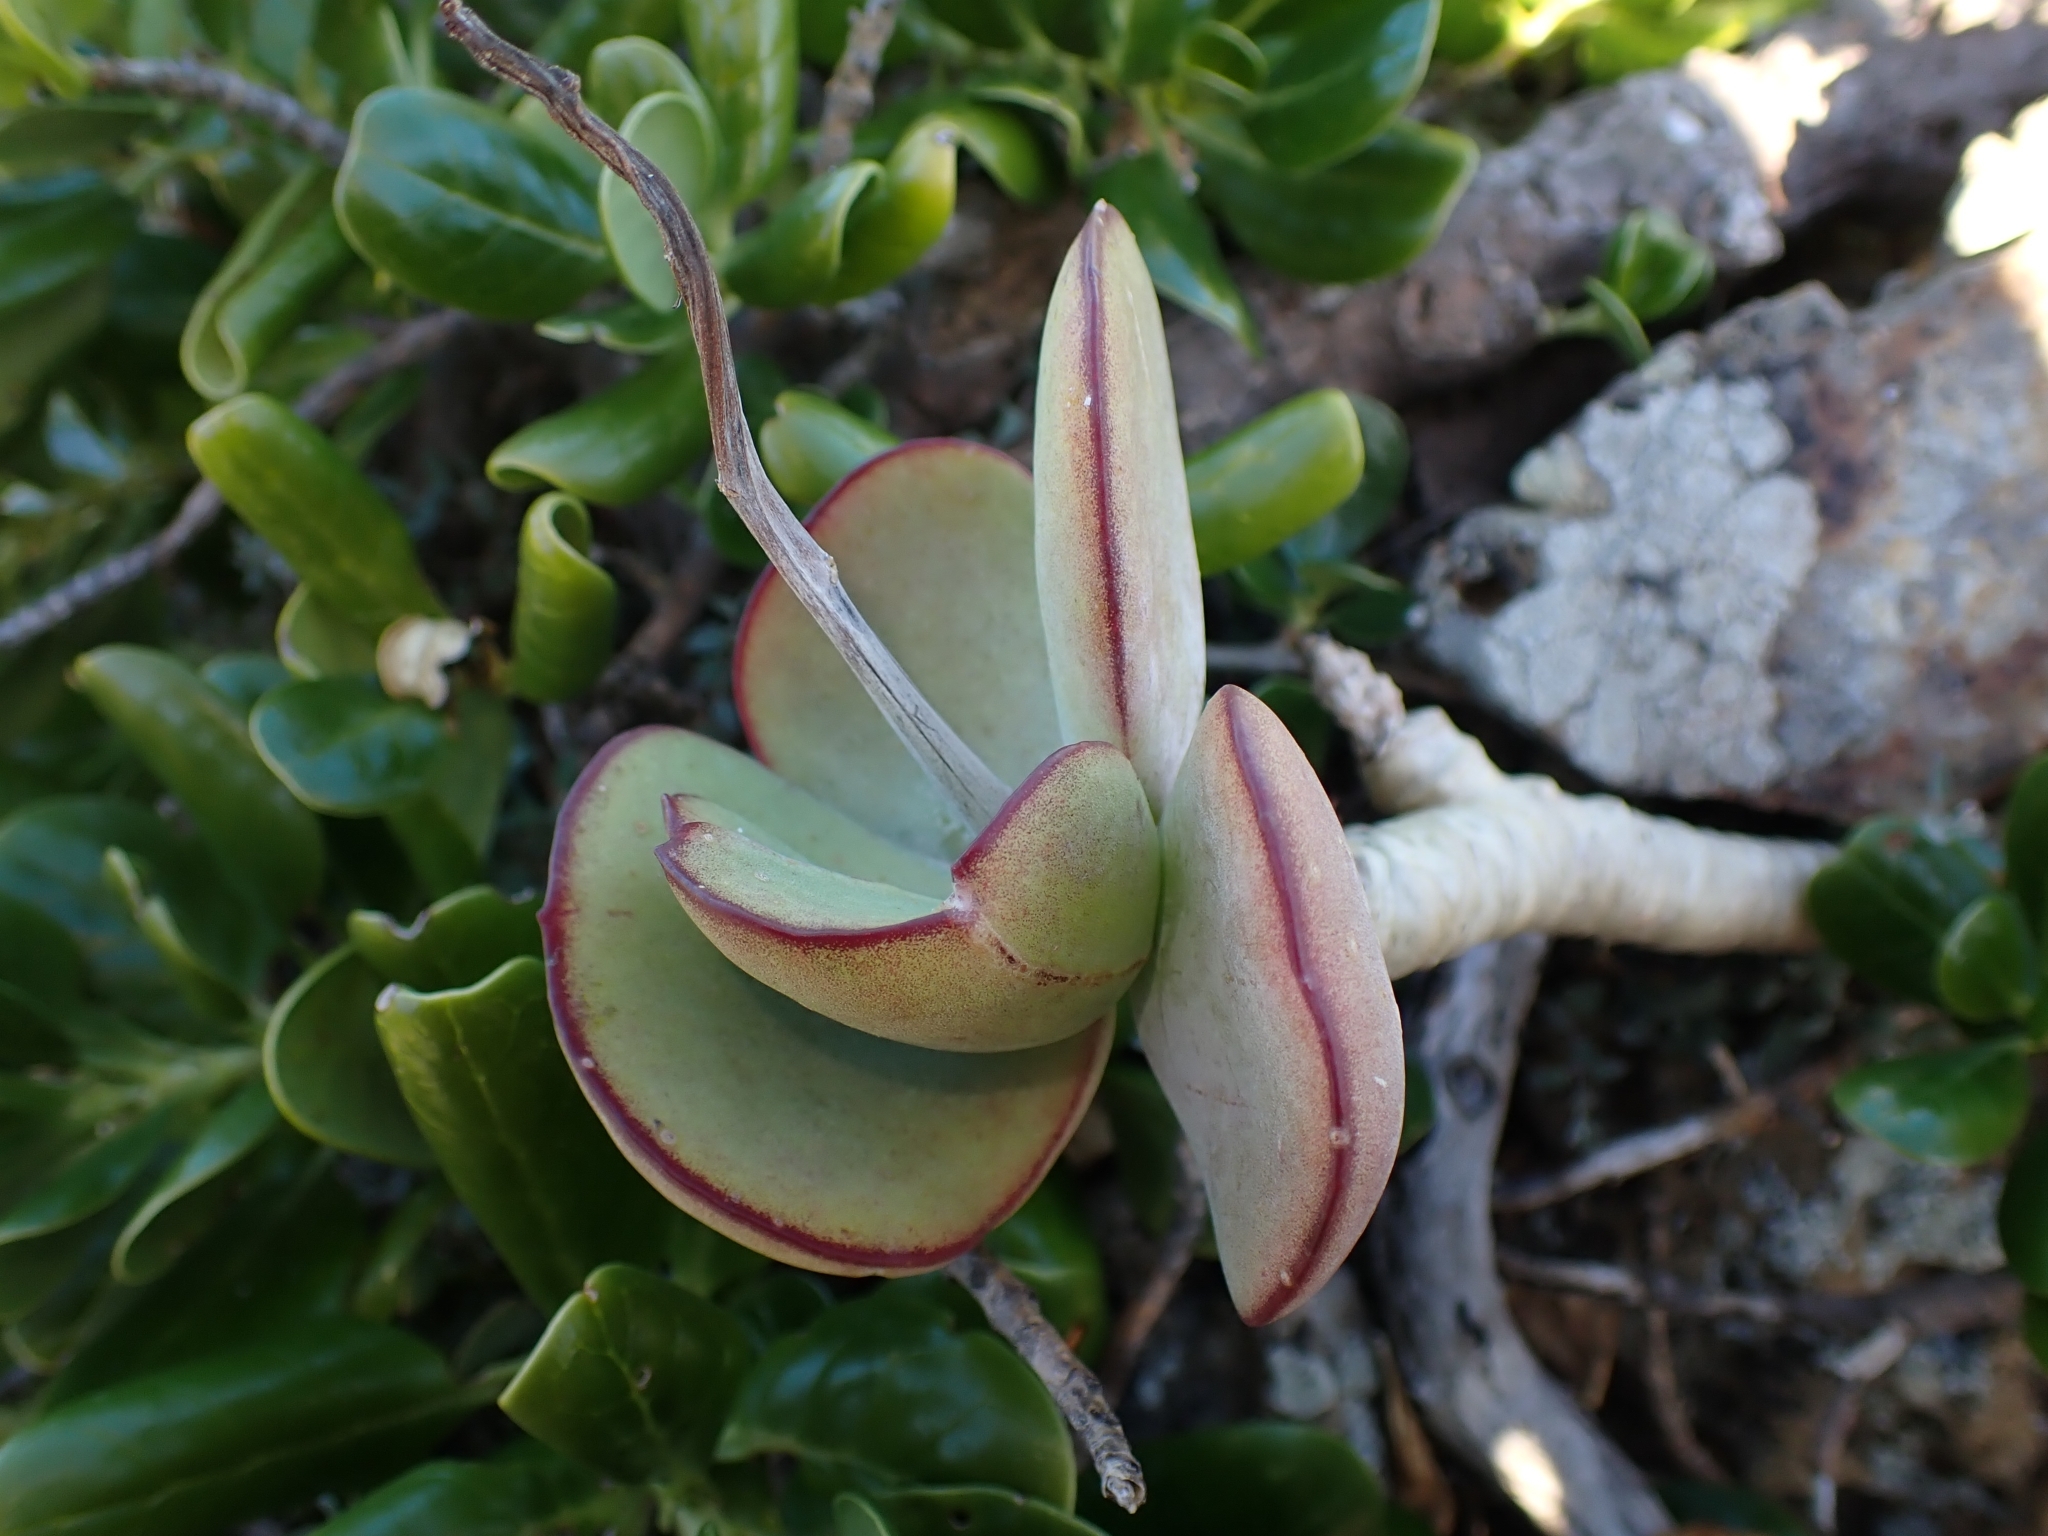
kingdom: Plantae
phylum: Tracheophyta
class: Magnoliopsida
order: Saxifragales
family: Crassulaceae
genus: Cotyledon
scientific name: Cotyledon orbiculata
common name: Pig's ear
